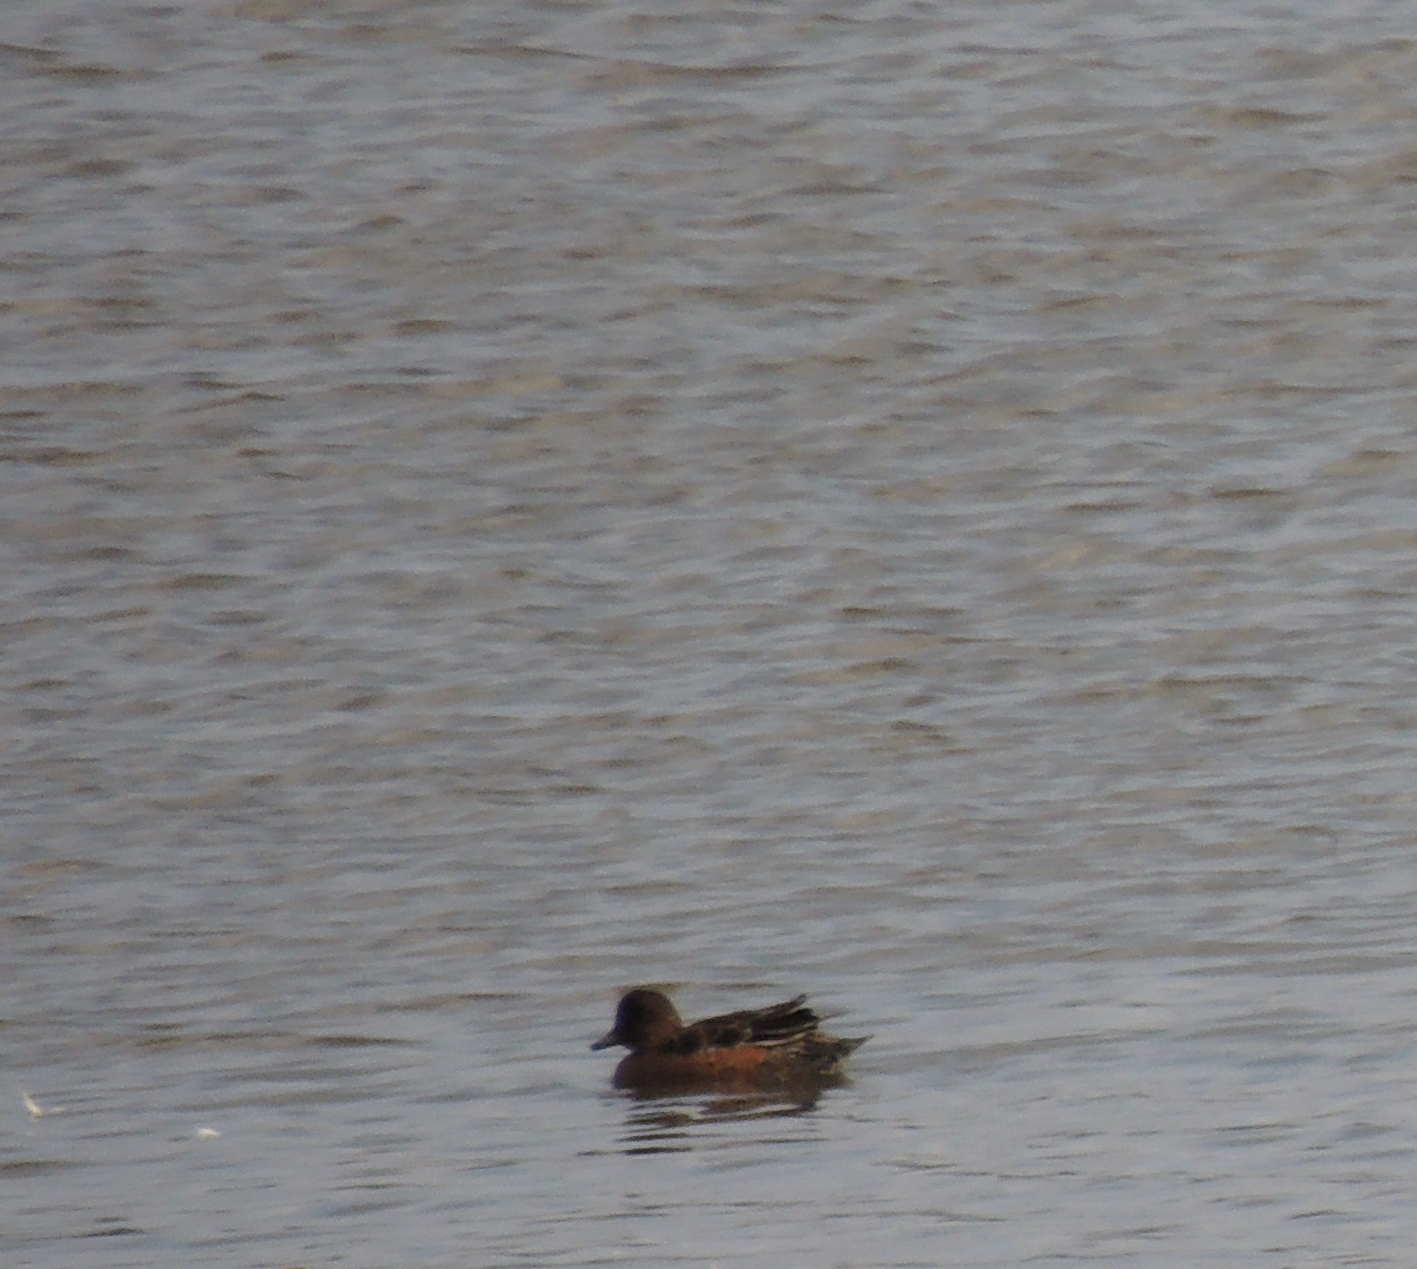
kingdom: Animalia
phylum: Chordata
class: Aves
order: Anseriformes
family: Anatidae
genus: Mareca
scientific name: Mareca penelope
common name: Eurasian wigeon
